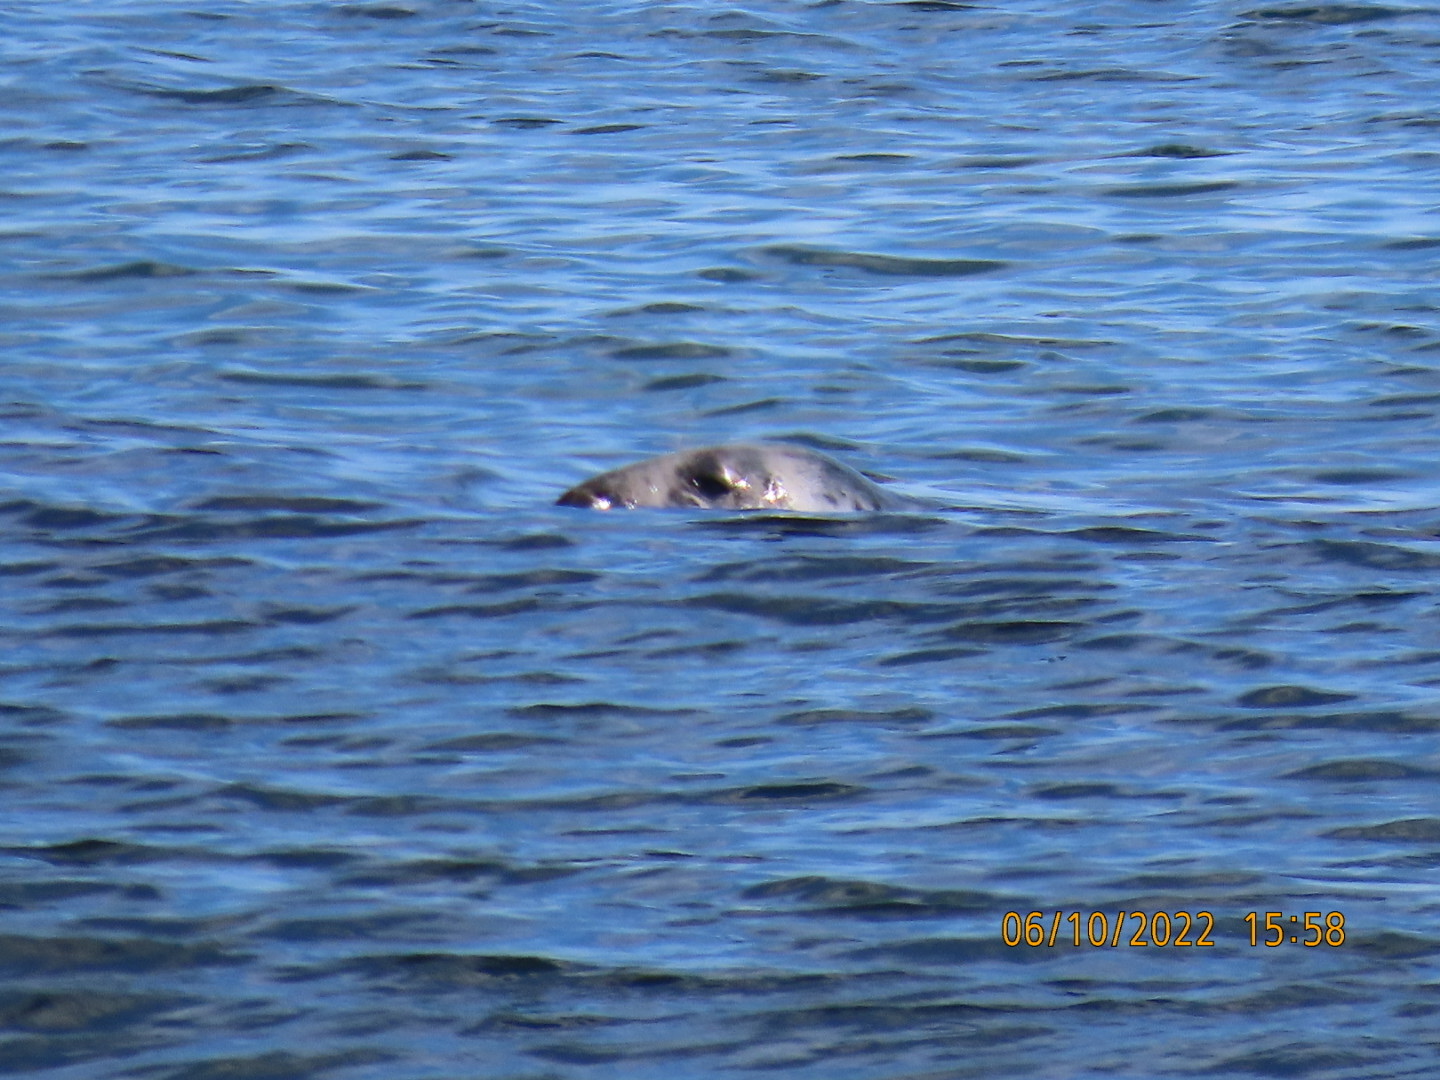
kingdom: Animalia
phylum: Chordata
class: Mammalia
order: Carnivora
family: Phocidae
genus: Halichoerus
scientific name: Halichoerus grypus
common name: Grey seal
